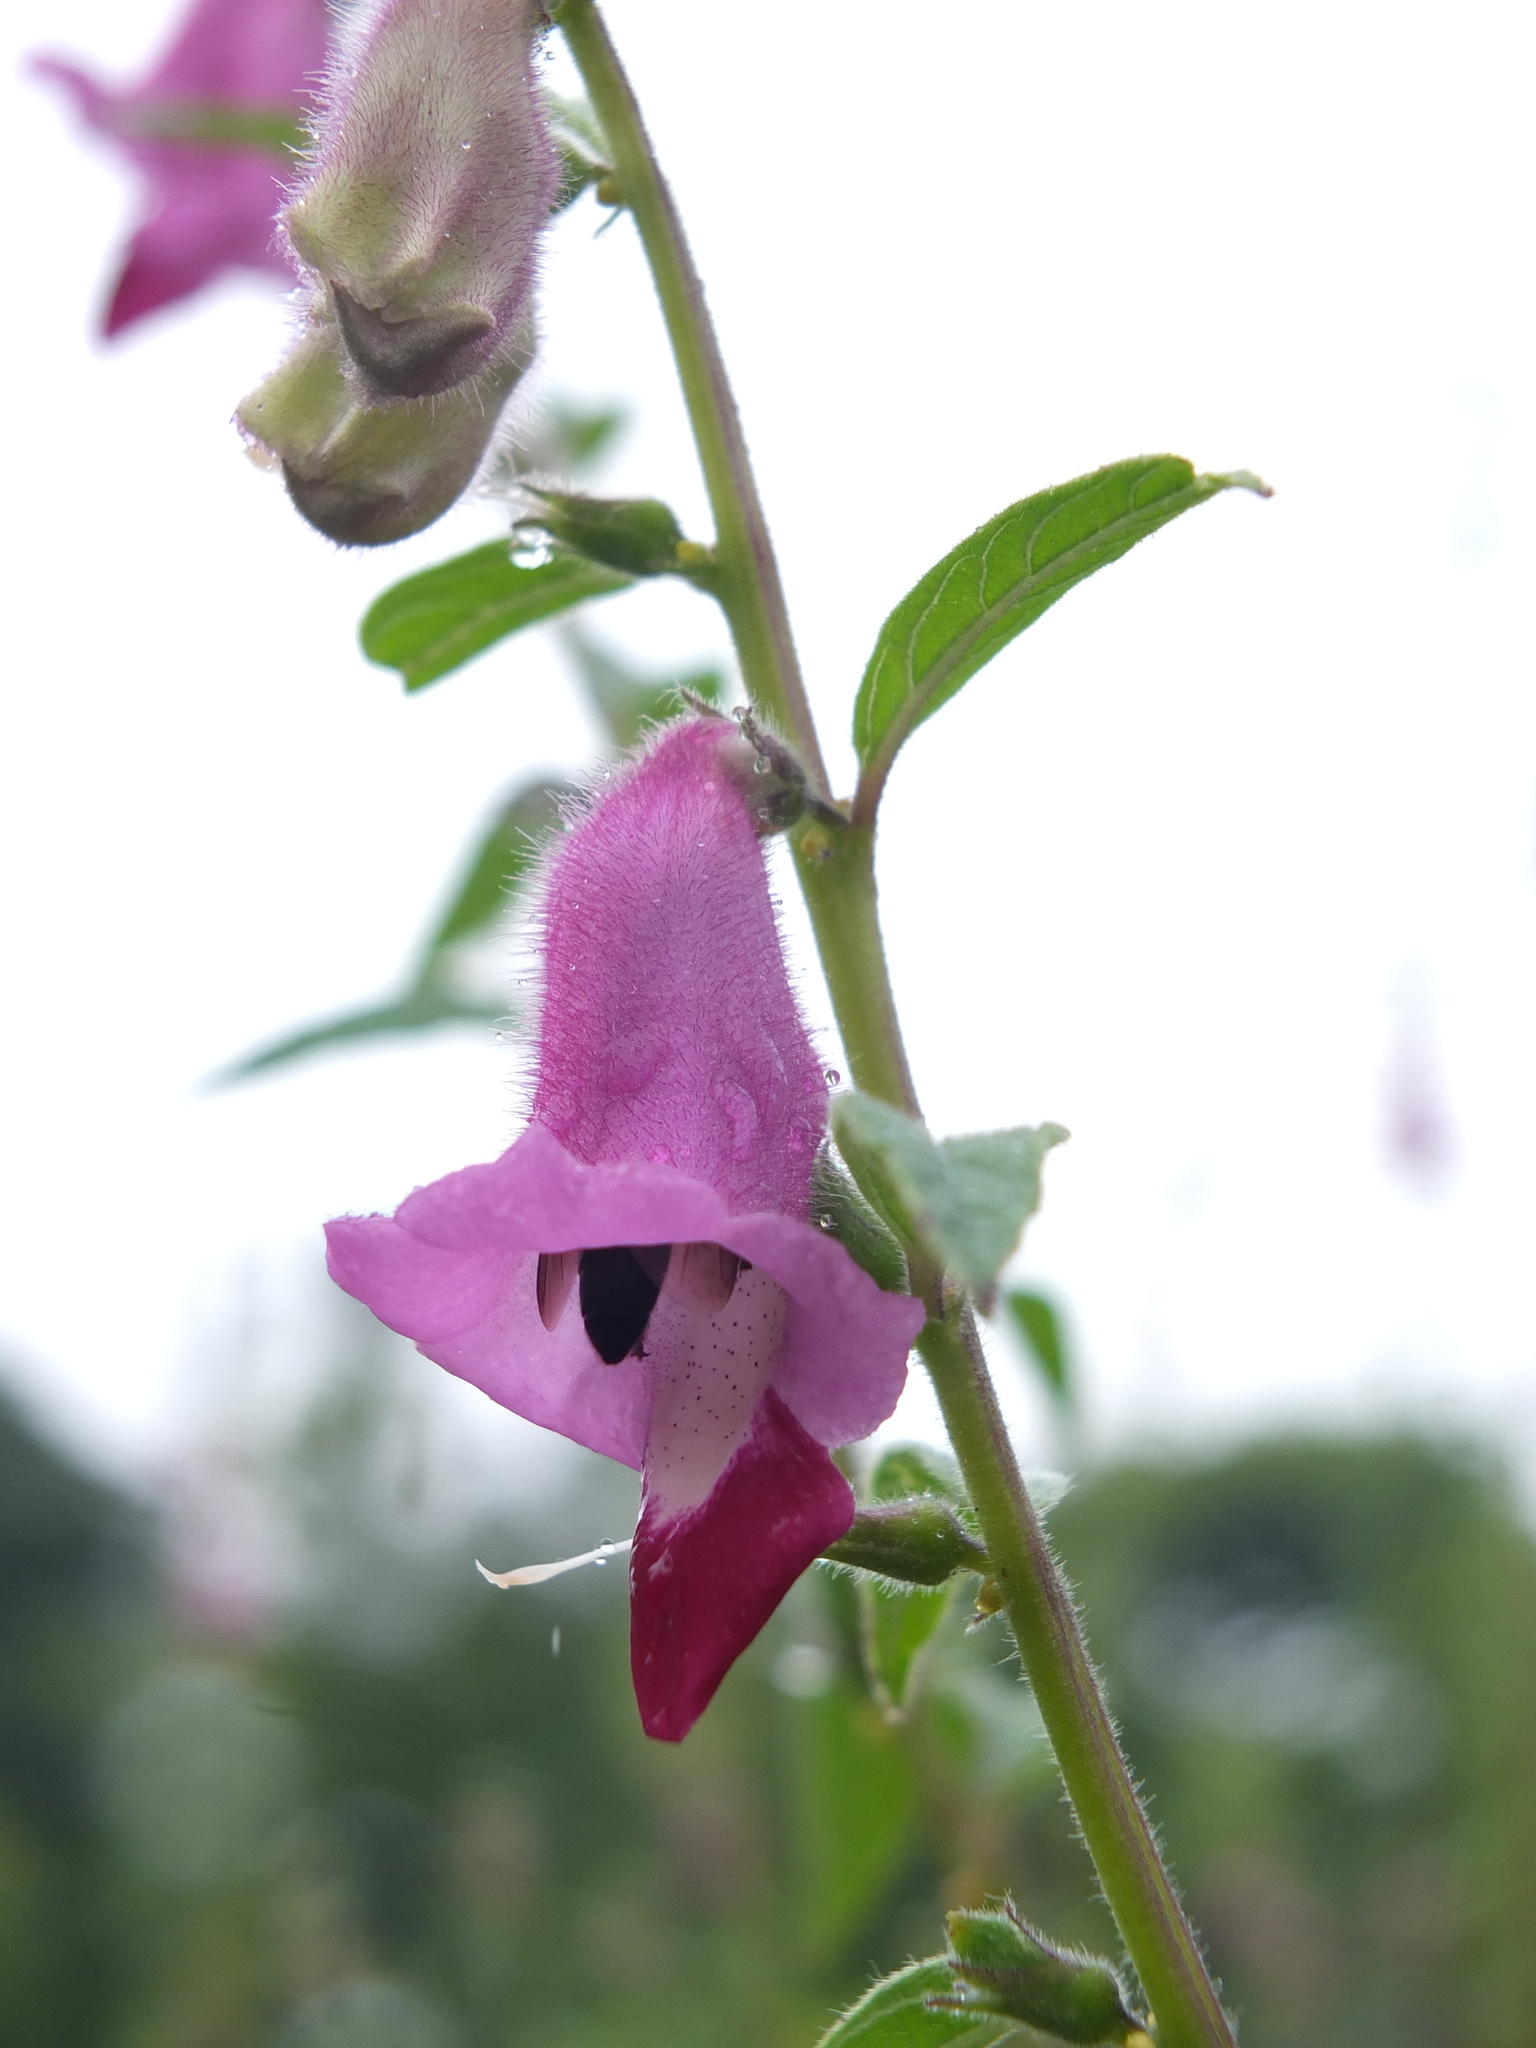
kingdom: Plantae
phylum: Tracheophyta
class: Magnoliopsida
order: Lamiales
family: Pedaliaceae
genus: Sesamum
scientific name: Sesamum indicum
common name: Sesame
